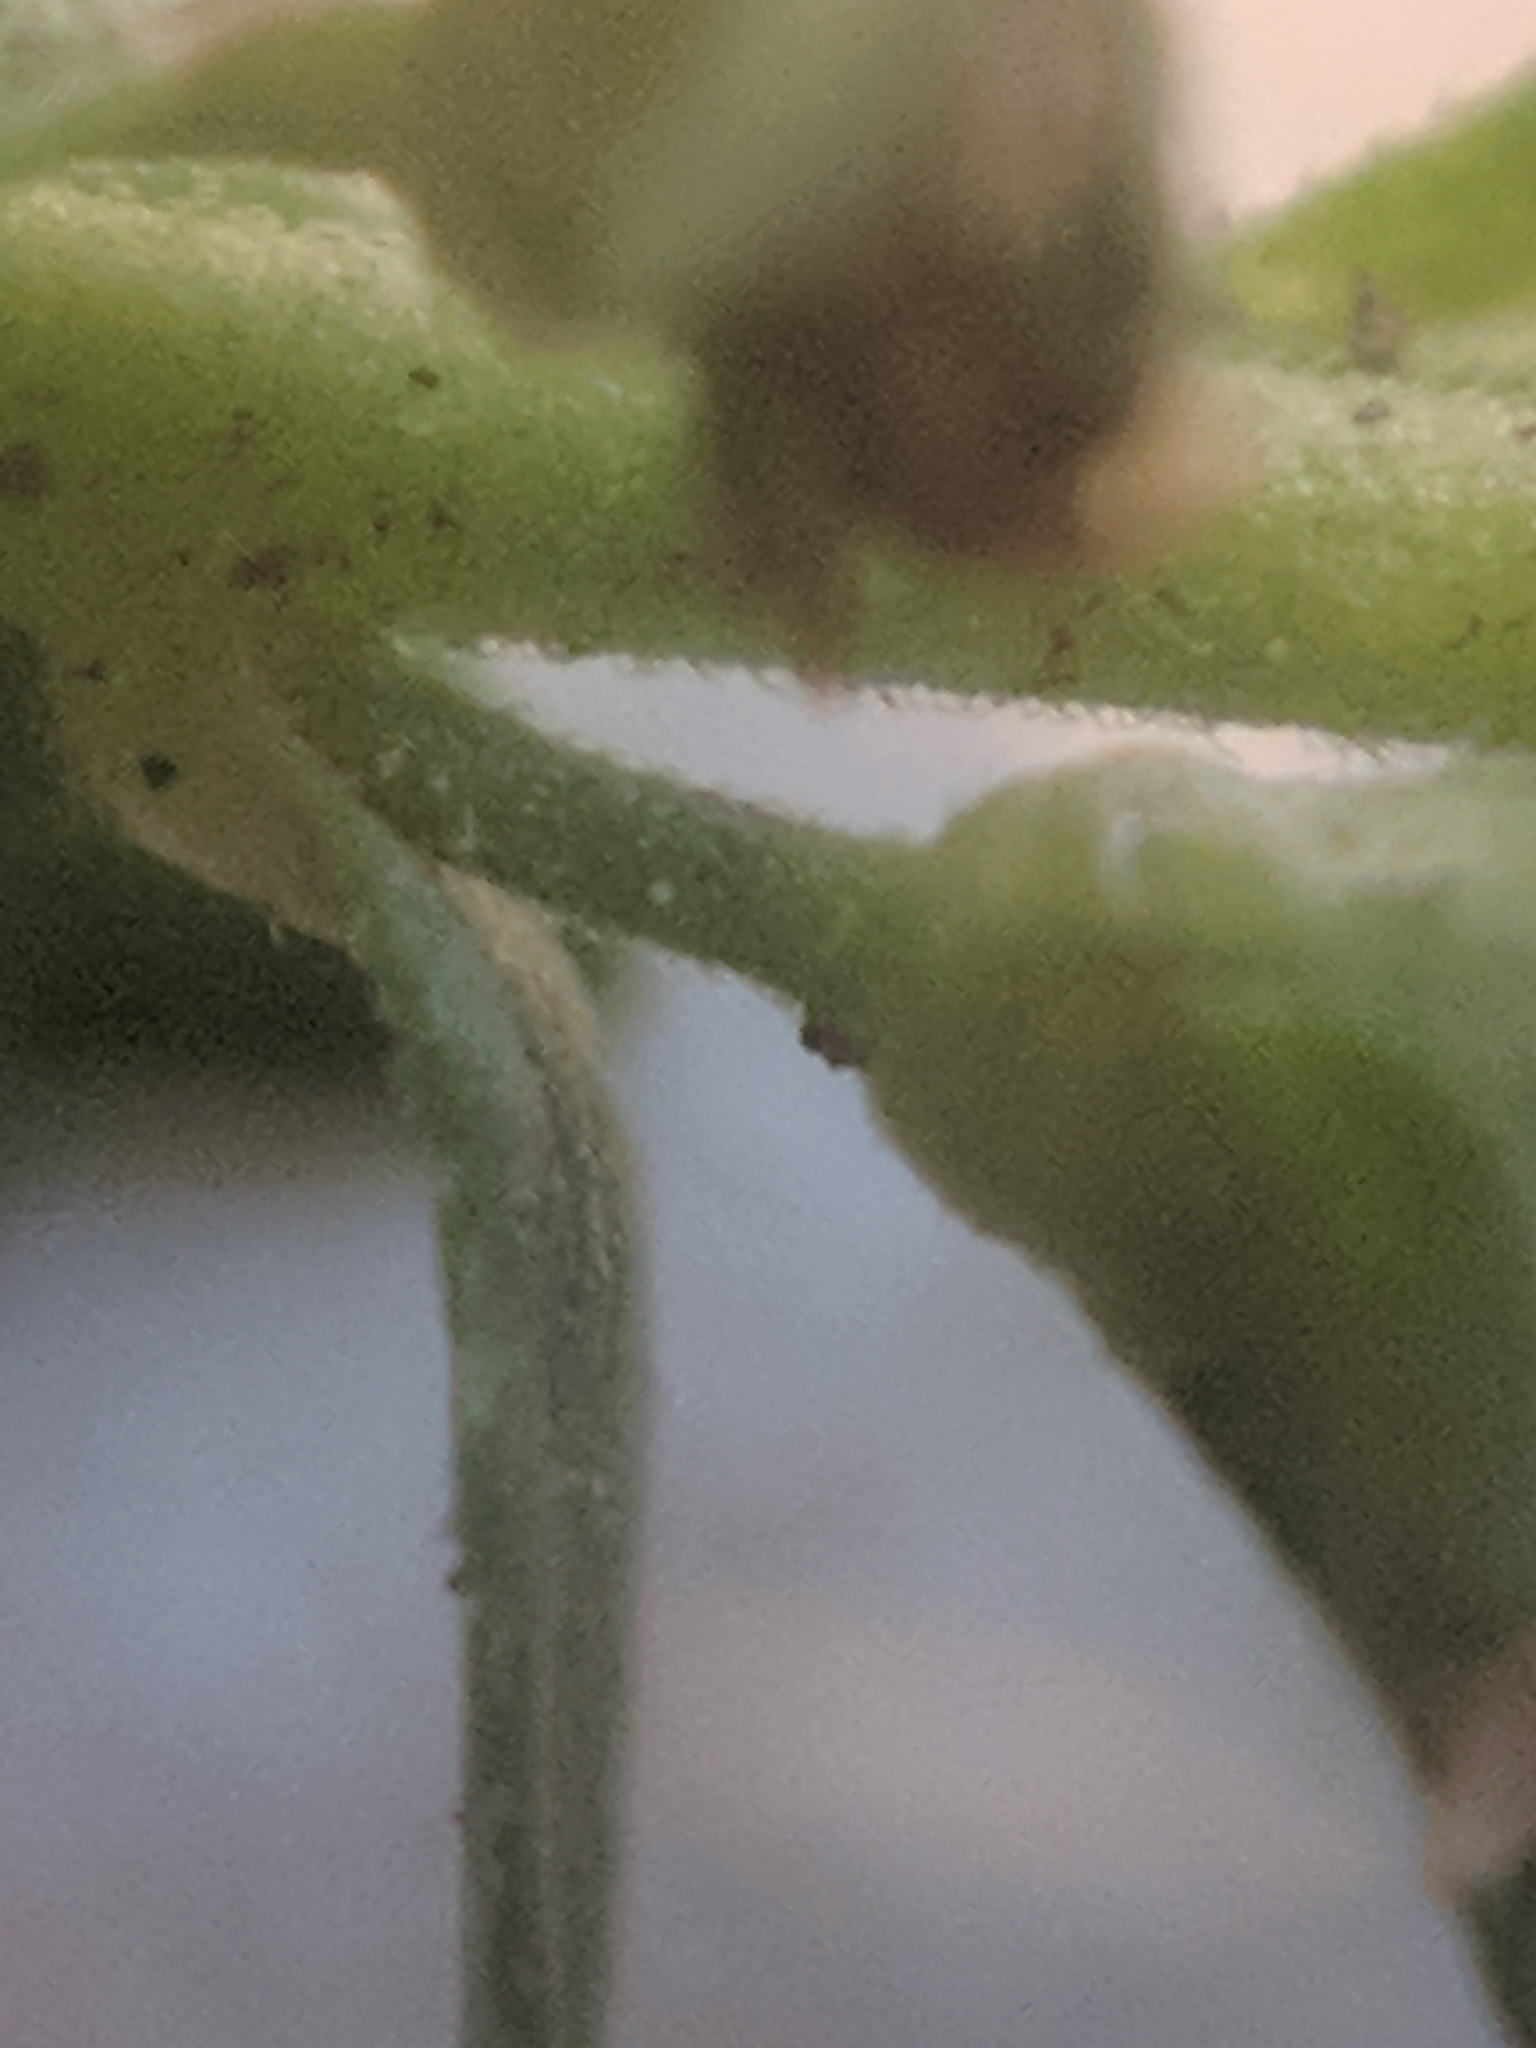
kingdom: Plantae
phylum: Tracheophyta
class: Magnoliopsida
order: Lamiales
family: Plantaginaceae
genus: Veronica
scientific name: Veronica serpyllifolia
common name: Thyme-leaved speedwell
